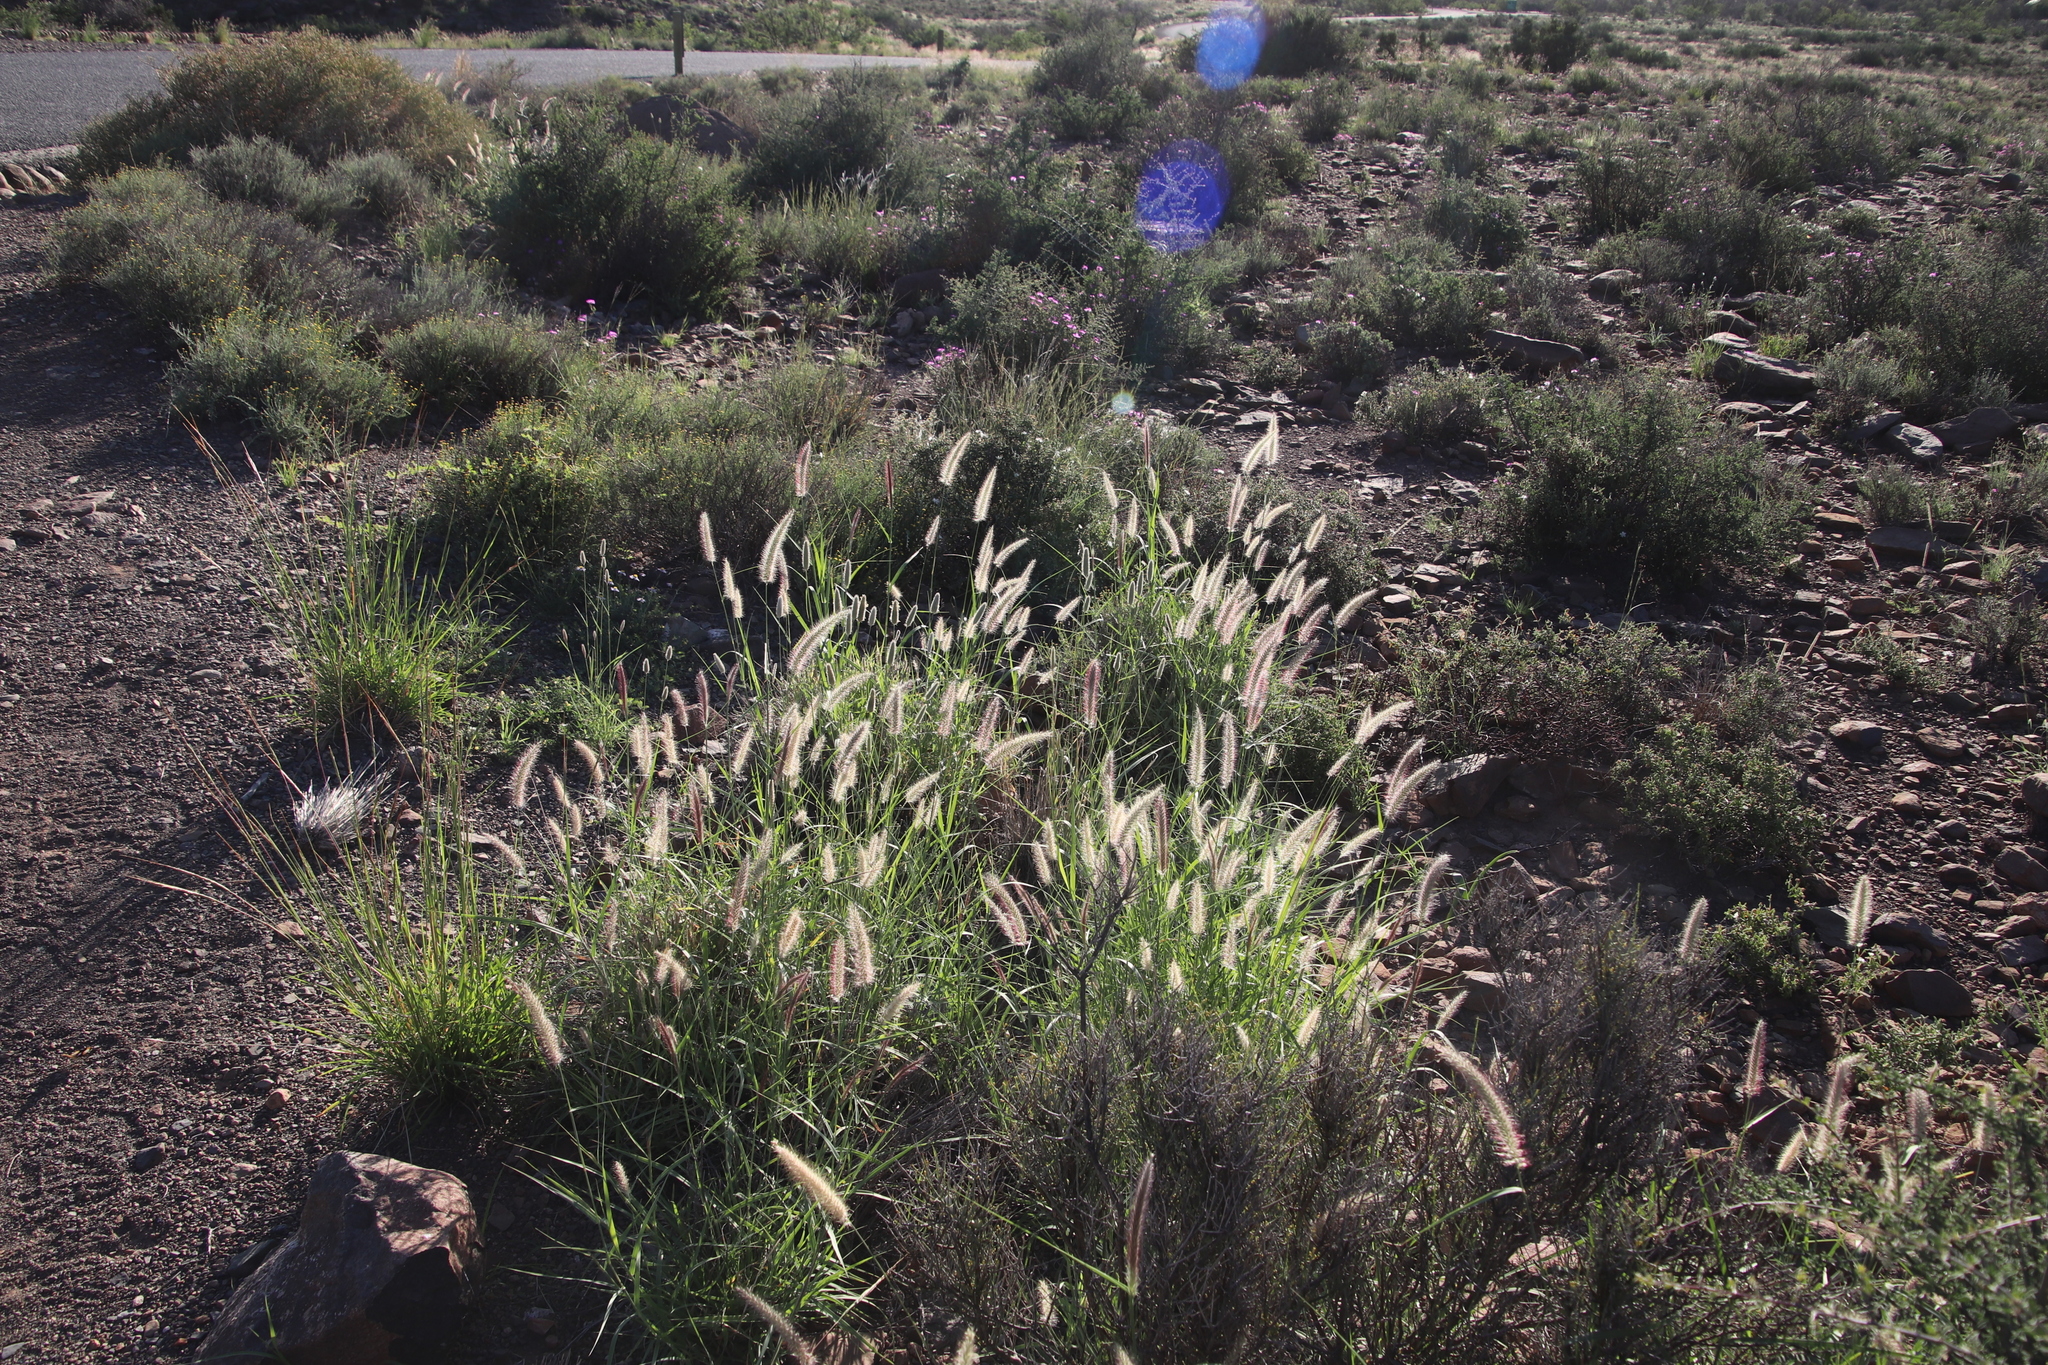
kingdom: Plantae
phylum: Tracheophyta
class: Liliopsida
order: Poales
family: Poaceae
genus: Cenchrus
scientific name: Cenchrus ciliaris
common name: Buffelgrass
